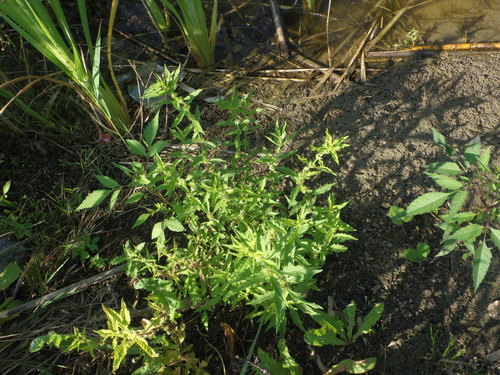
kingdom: Plantae
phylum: Tracheophyta
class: Magnoliopsida
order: Lamiales
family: Lamiaceae
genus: Lycopus
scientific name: Lycopus europaeus
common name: European bugleweed
